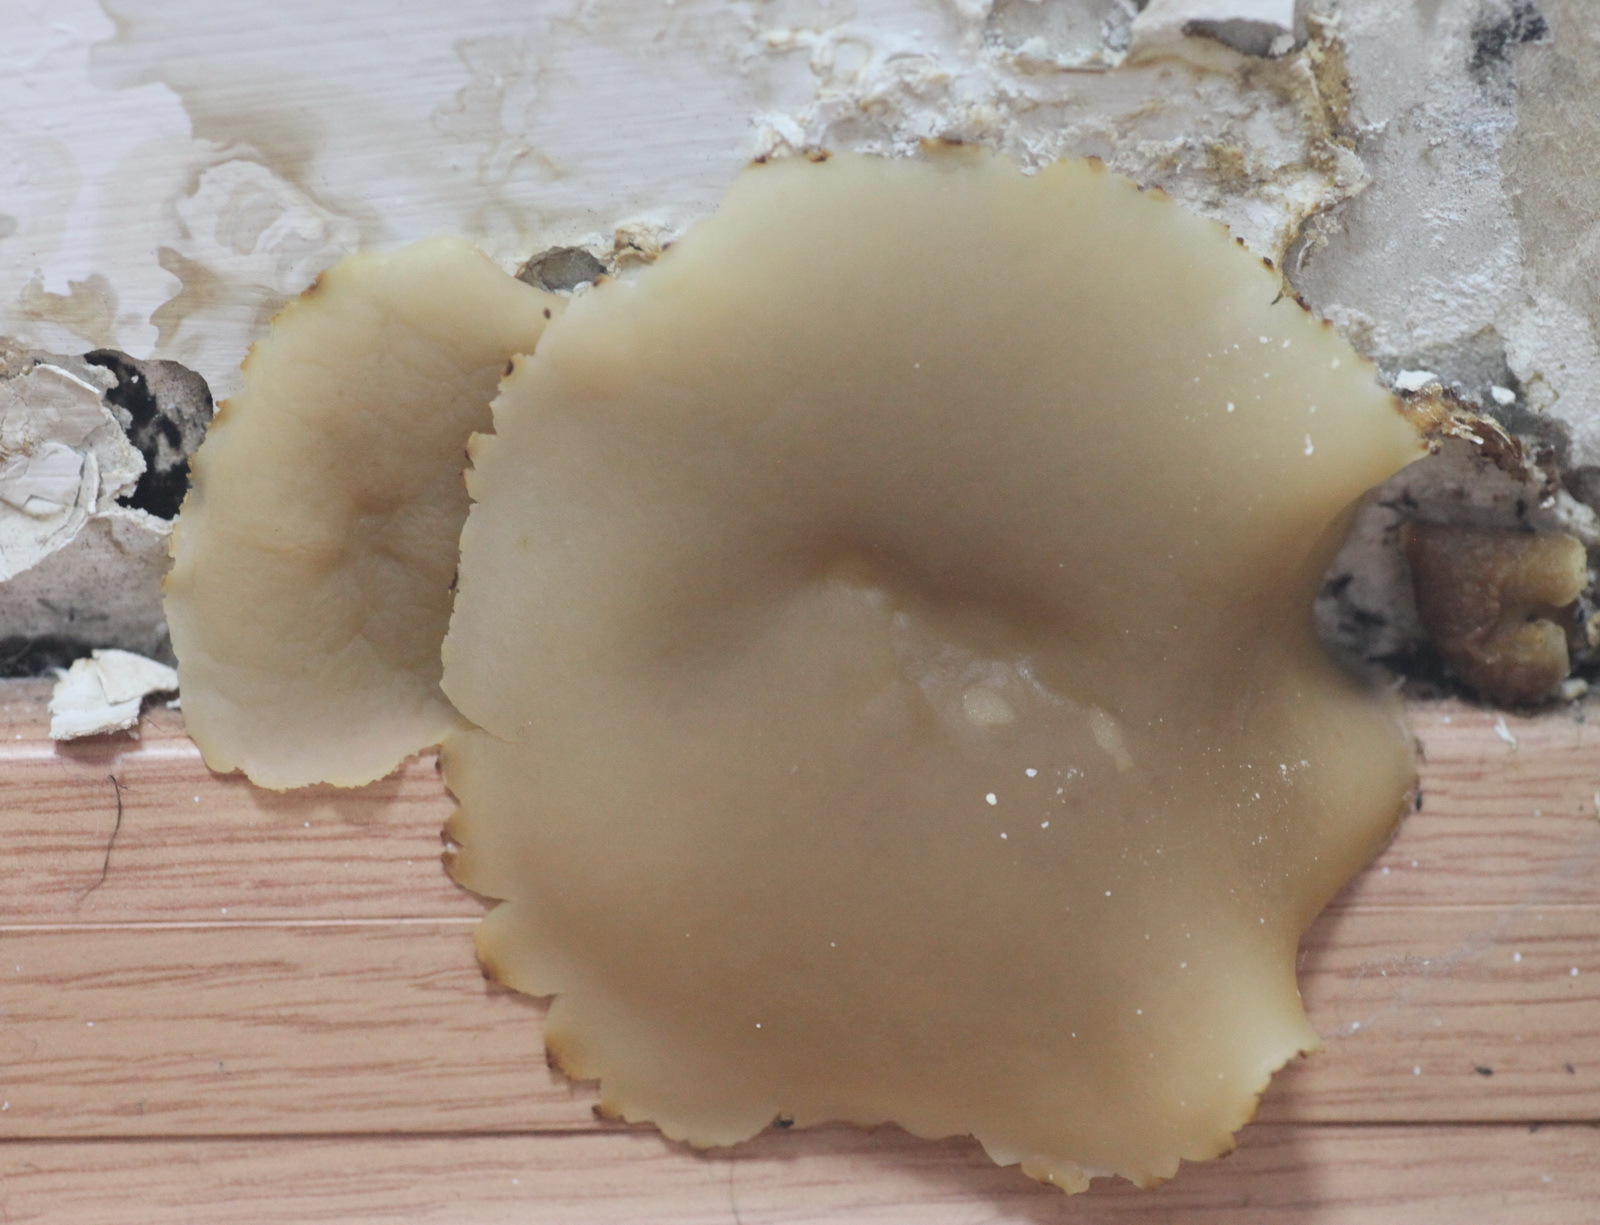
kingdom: Fungi
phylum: Ascomycota
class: Pezizomycetes
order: Pezizales
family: Pezizaceae
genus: Peziza
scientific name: Peziza domiciliana
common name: Home cup
